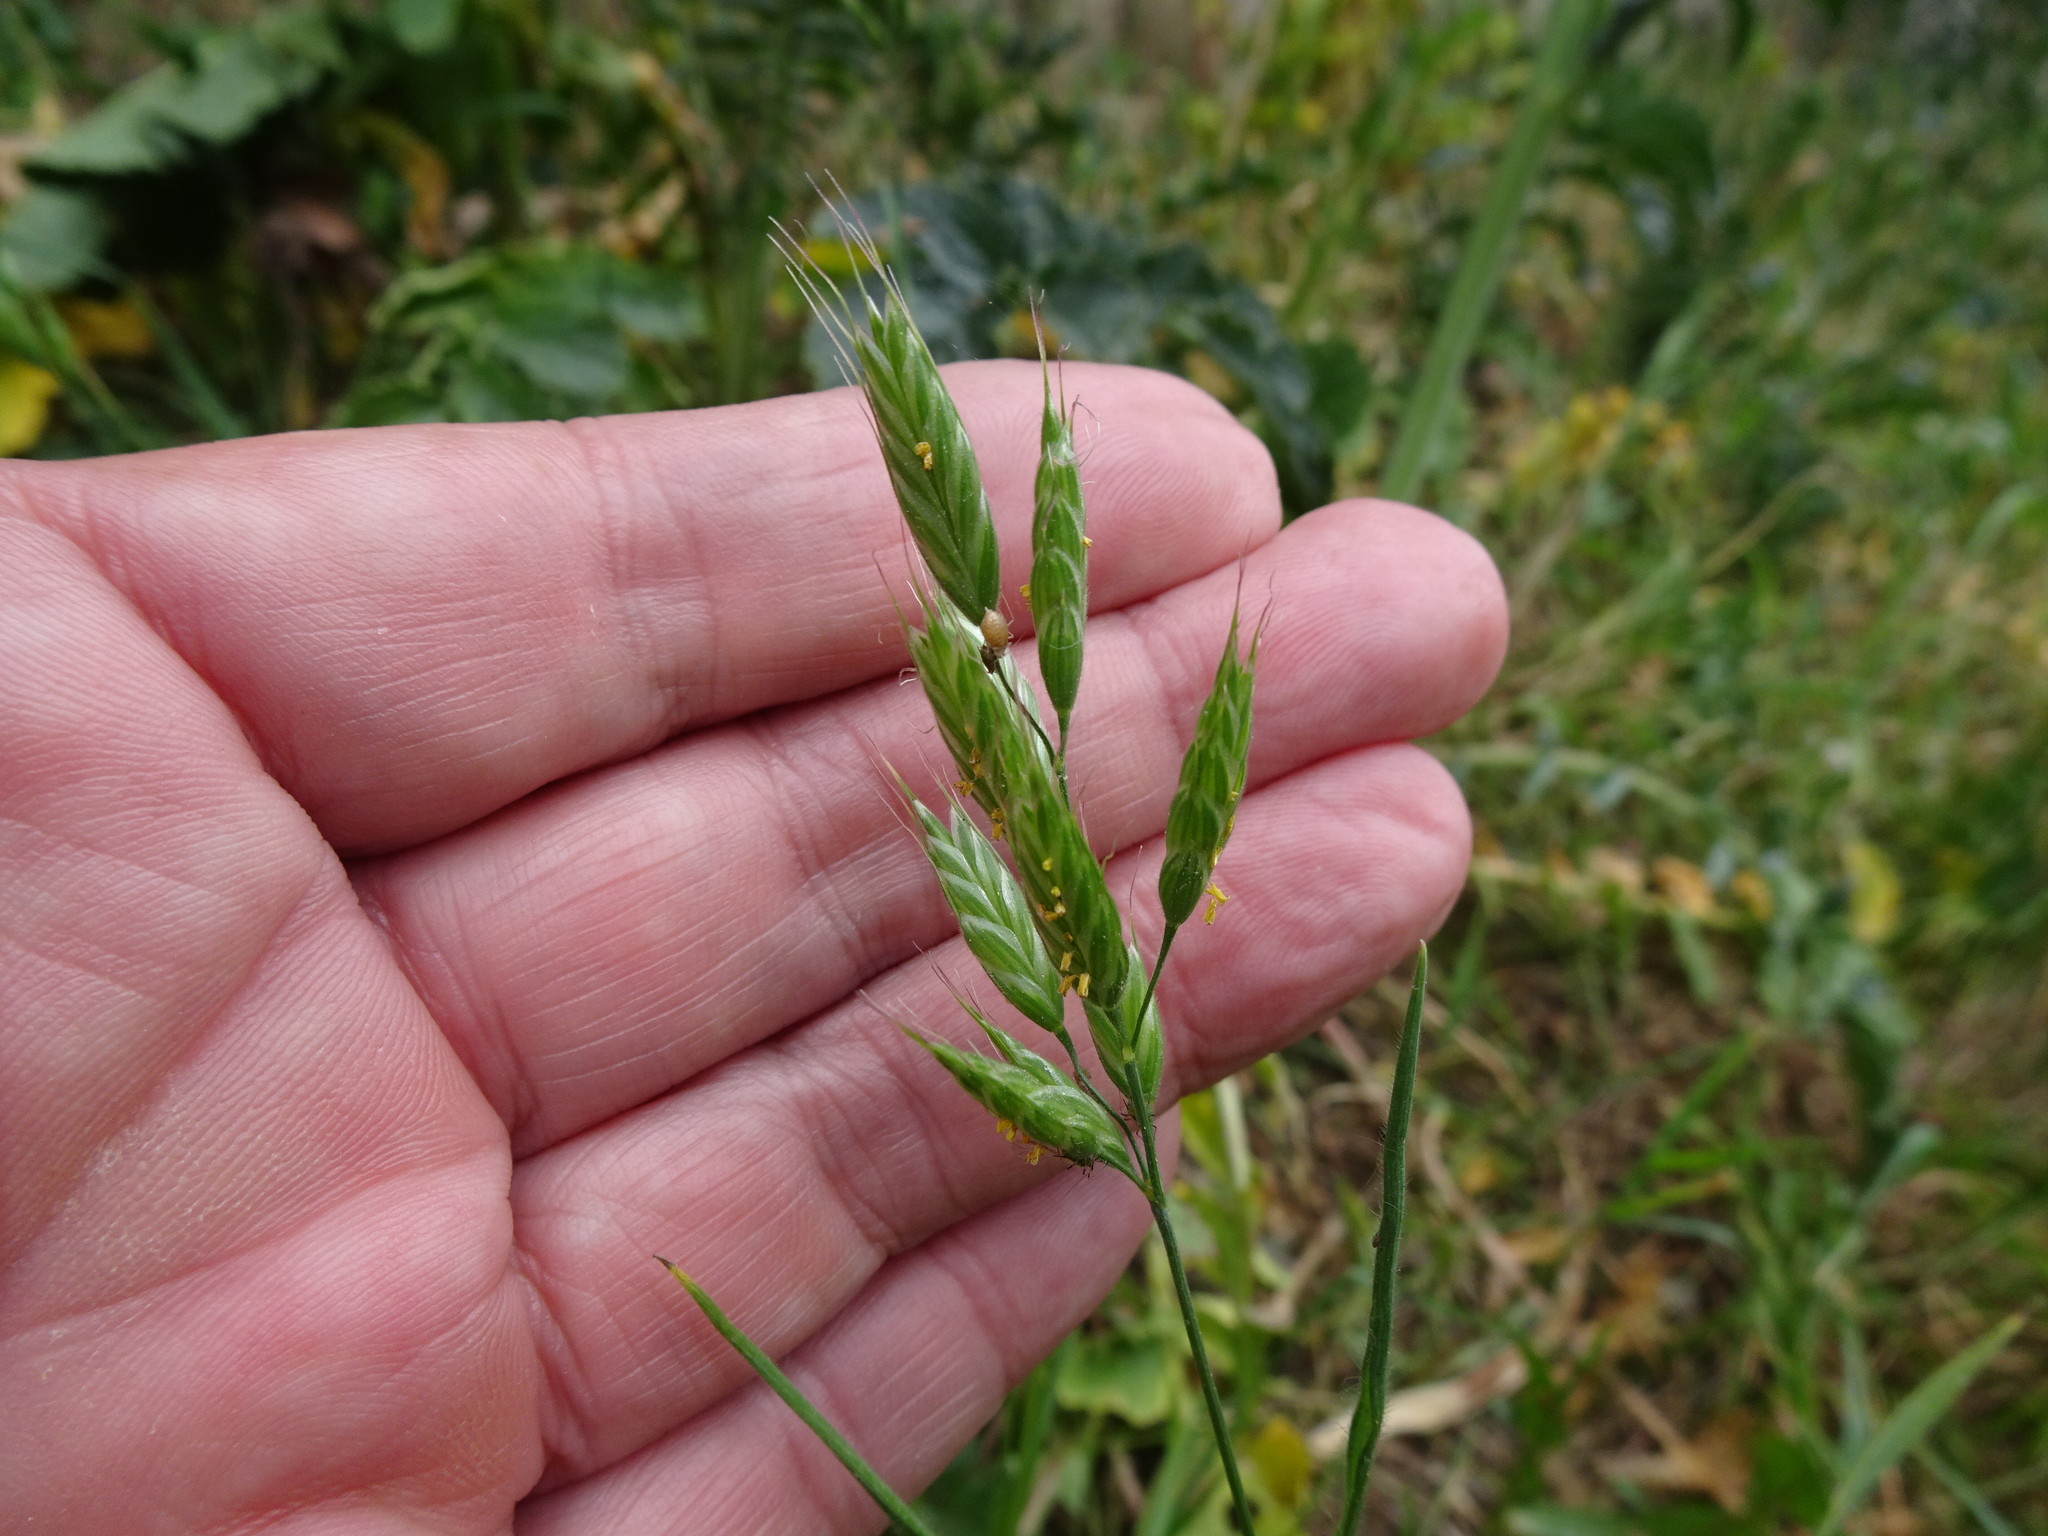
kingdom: Plantae
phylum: Tracheophyta
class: Liliopsida
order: Poales
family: Poaceae
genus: Bromus
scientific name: Bromus hordeaceus
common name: Soft brome
